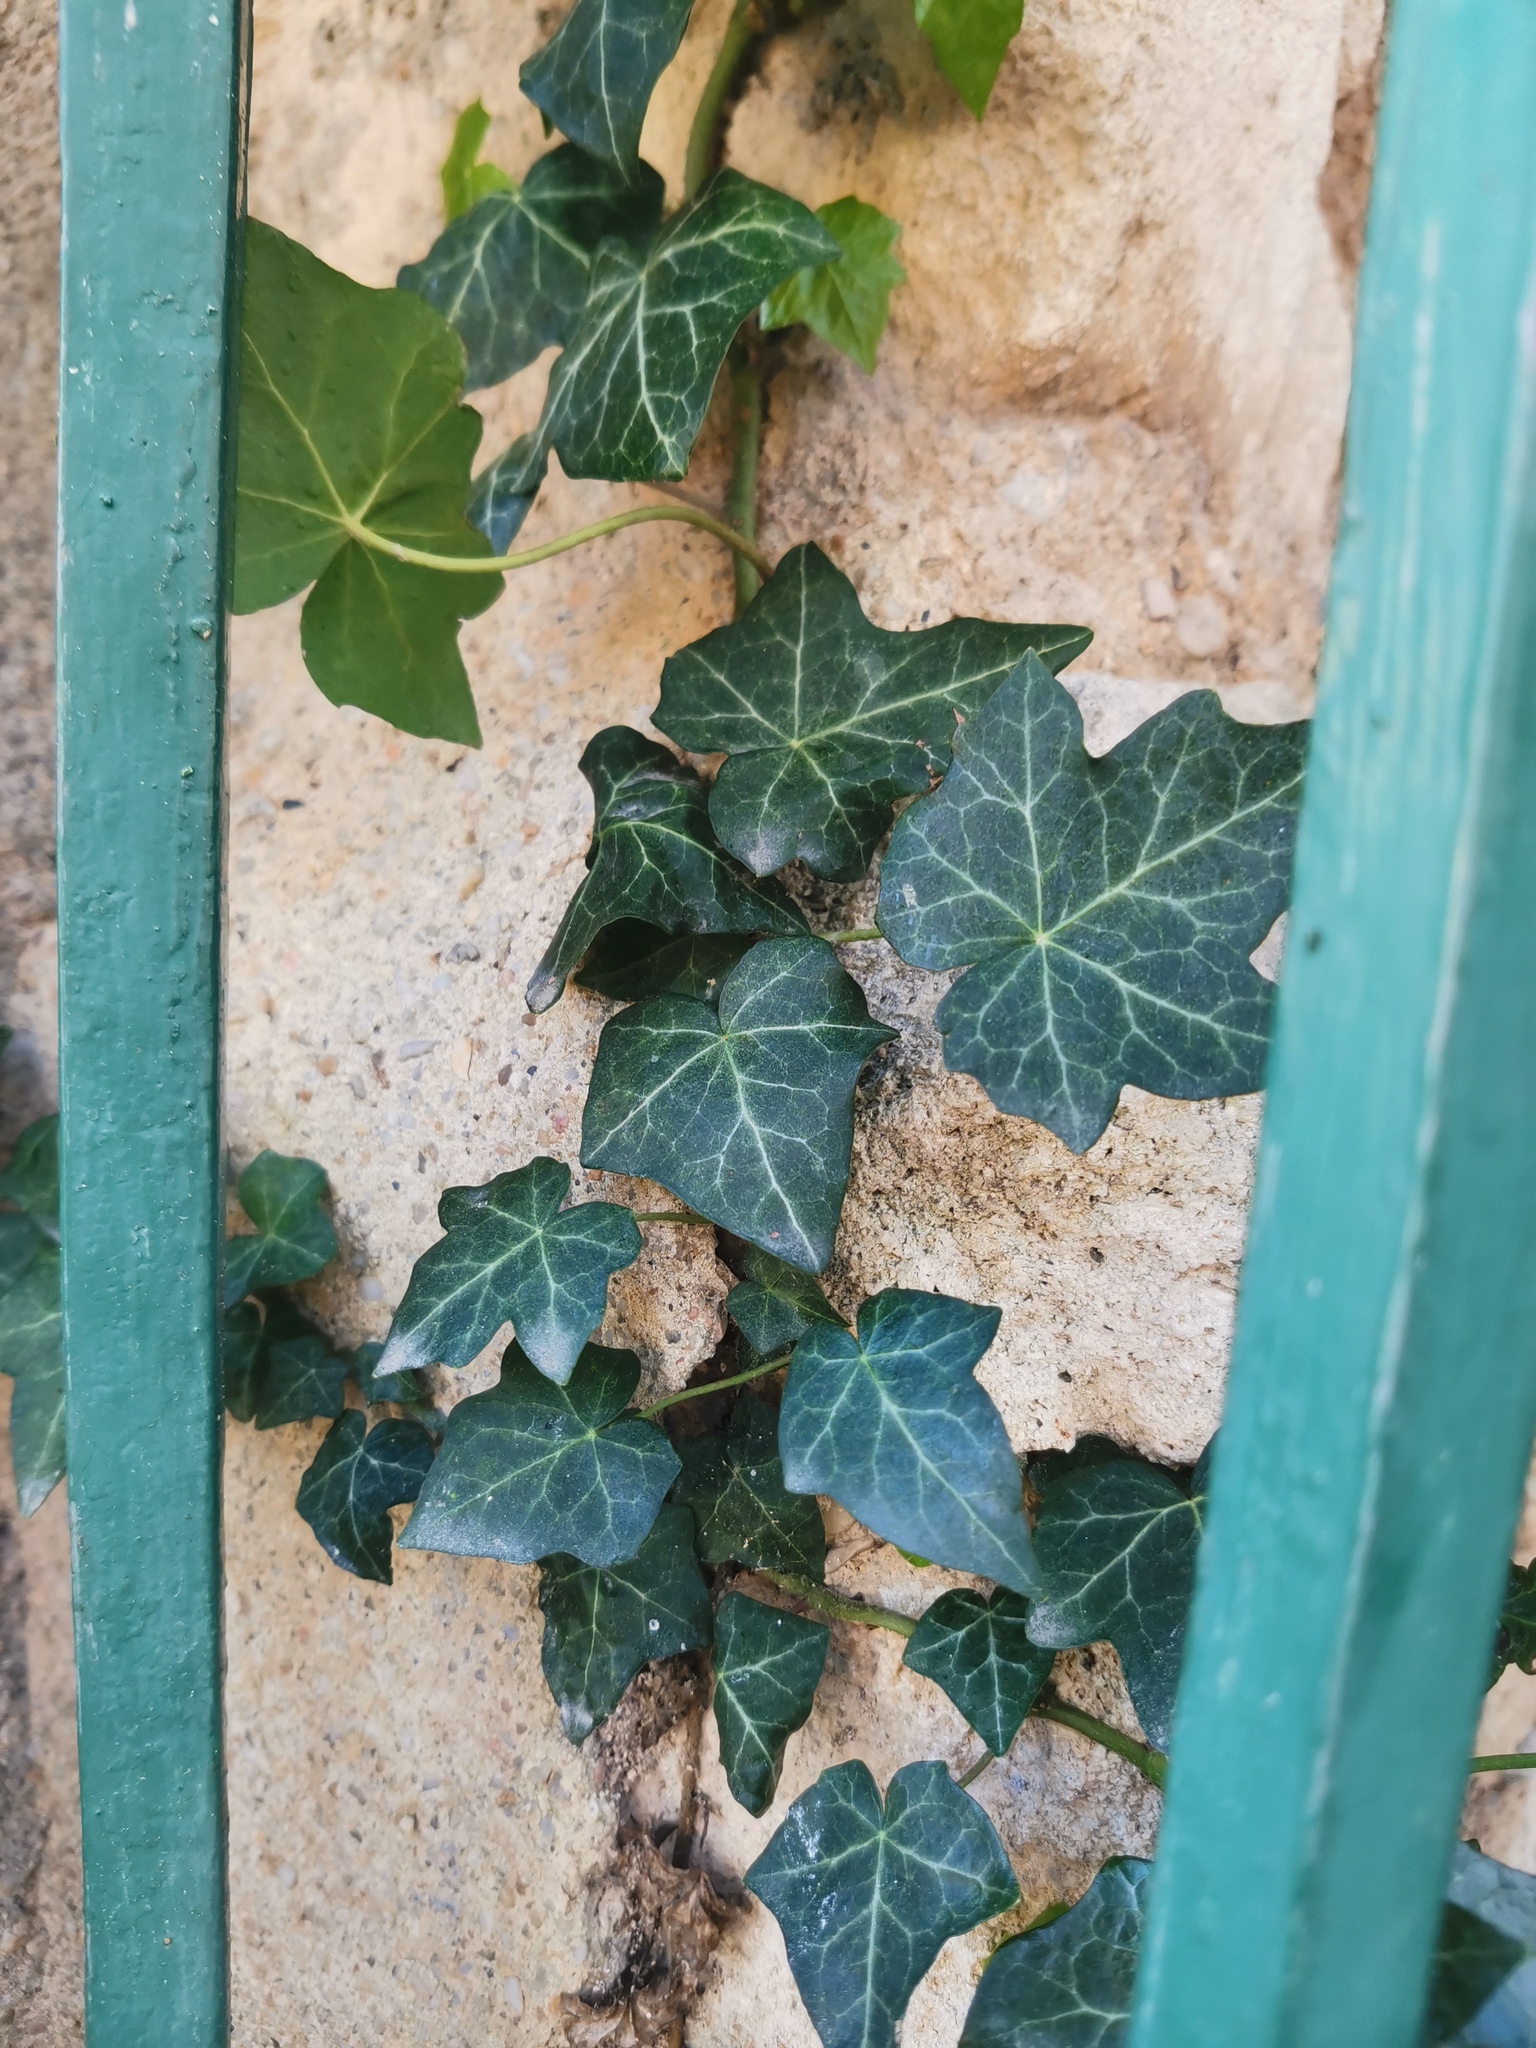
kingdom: Plantae
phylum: Tracheophyta
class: Magnoliopsida
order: Apiales
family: Araliaceae
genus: Hedera
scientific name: Hedera helix
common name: Ivy
